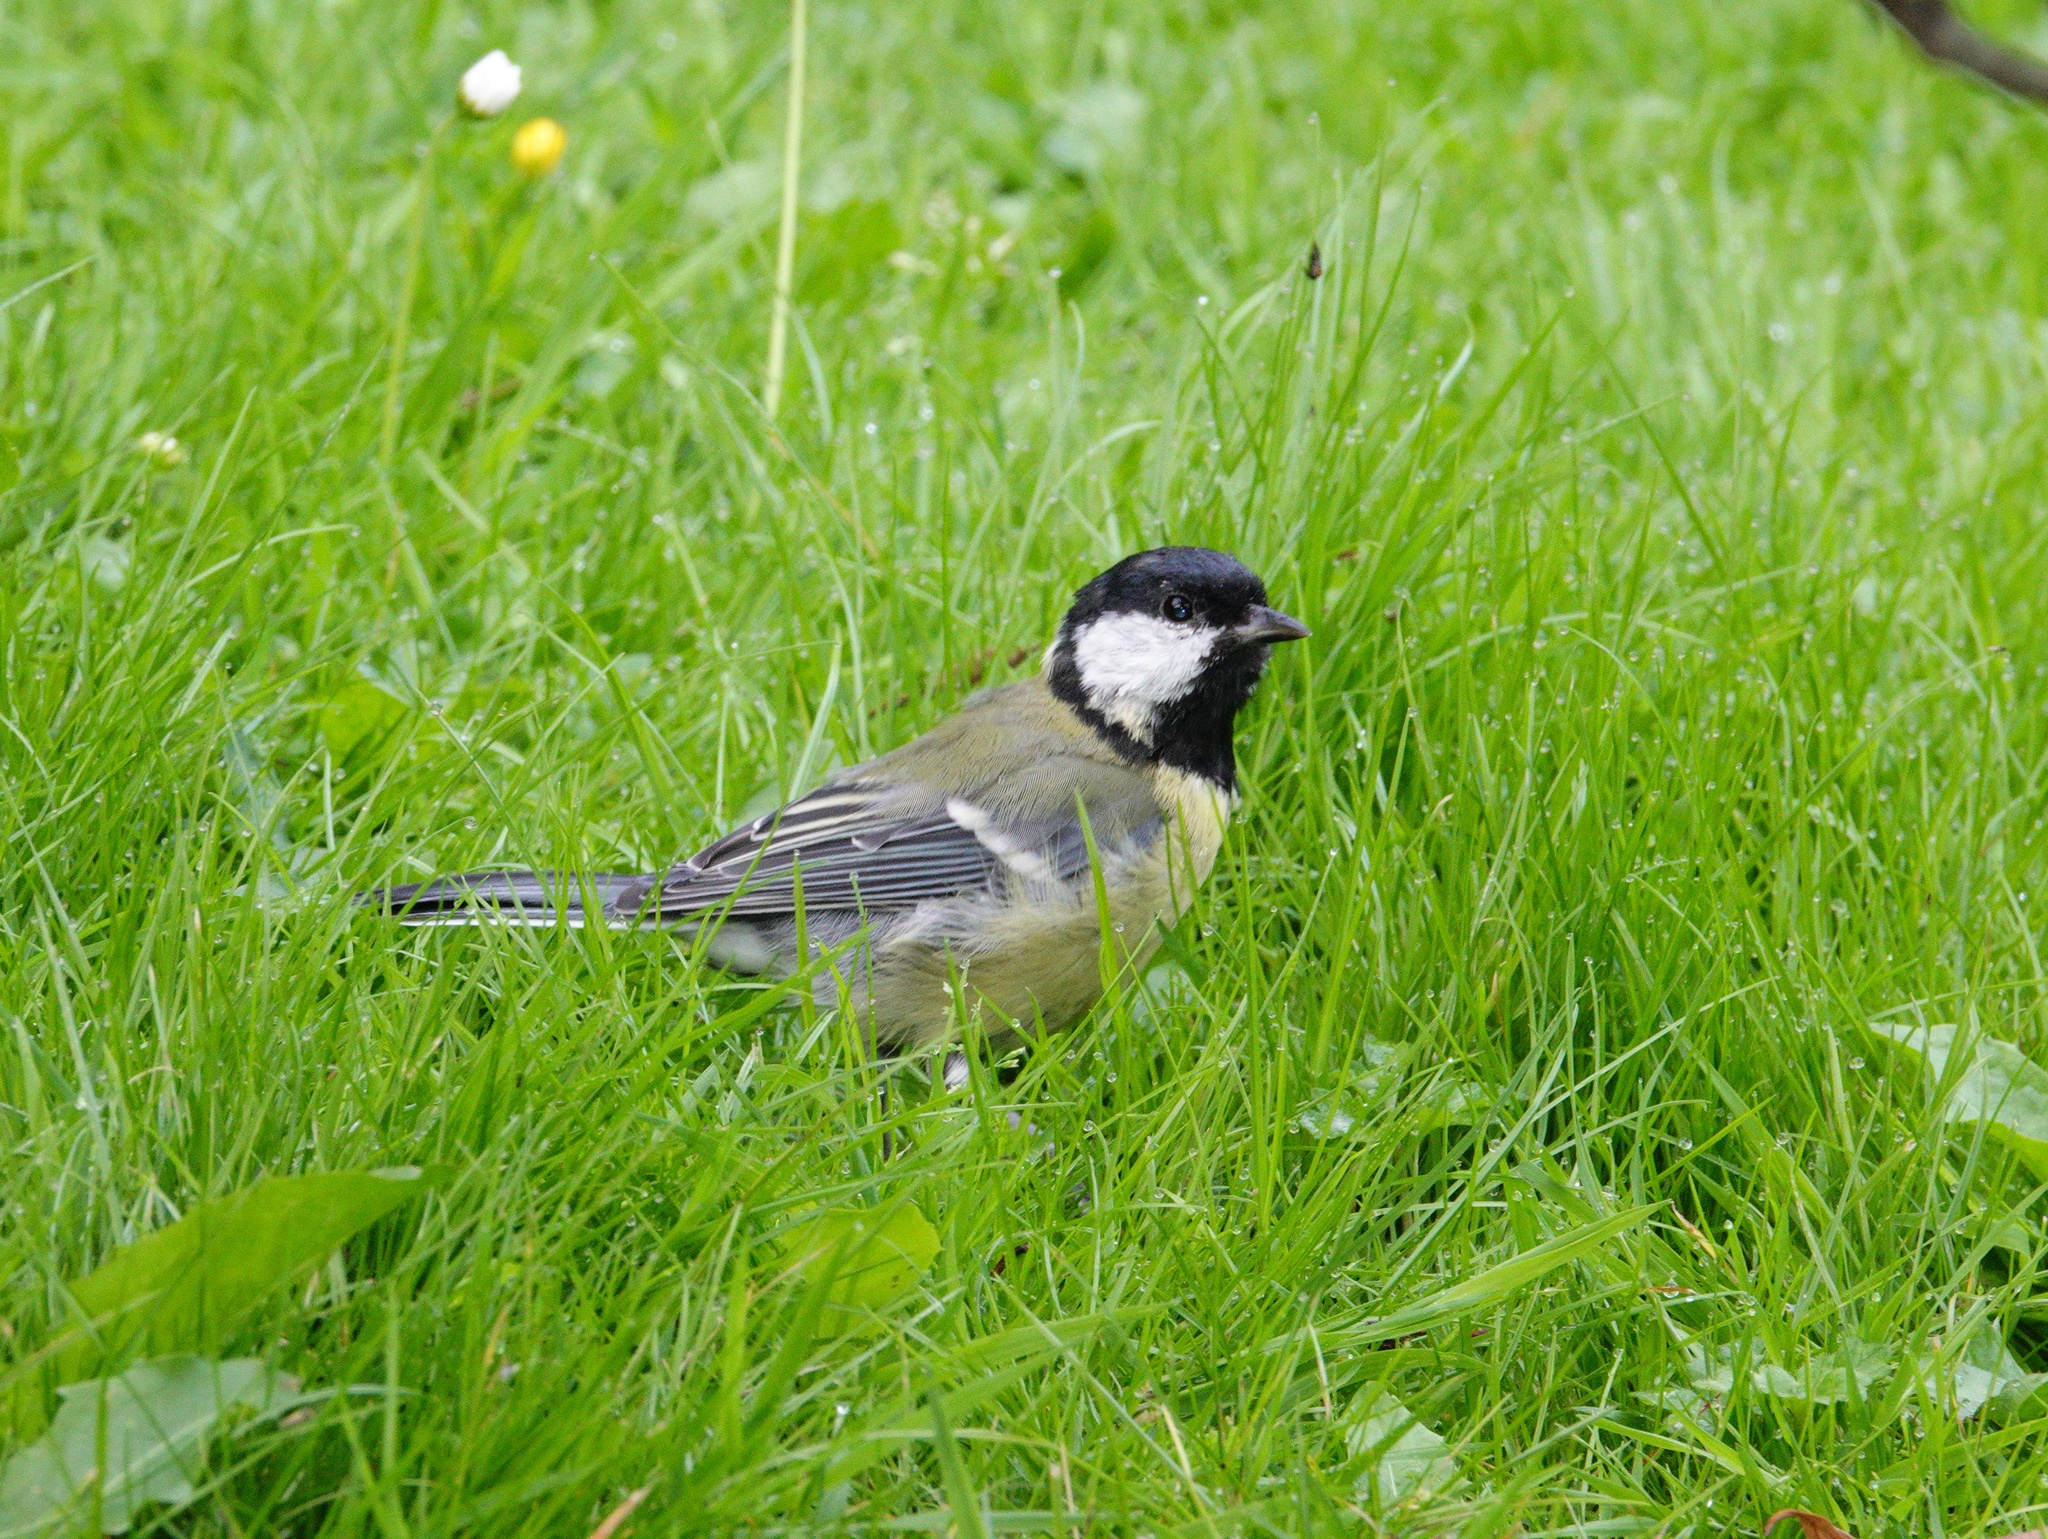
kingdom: Animalia
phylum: Chordata
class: Aves
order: Passeriformes
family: Paridae
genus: Parus
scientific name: Parus major
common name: Great tit
